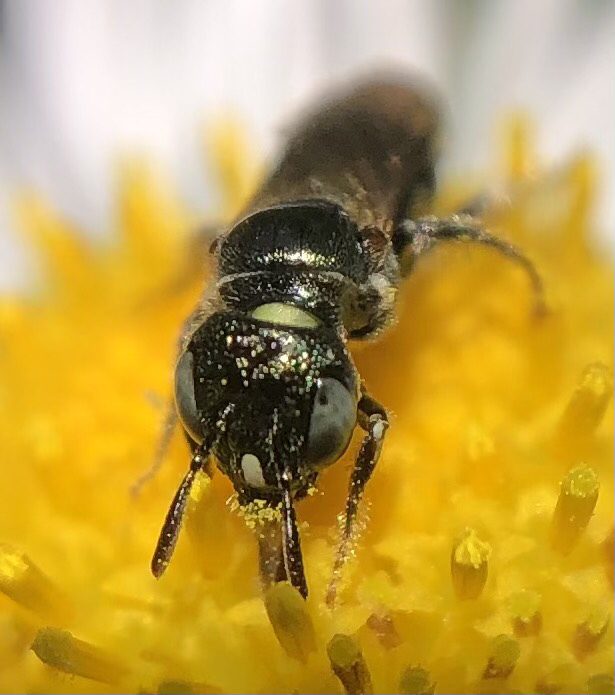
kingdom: Animalia
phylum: Arthropoda
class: Insecta
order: Hymenoptera
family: Apidae
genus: Ceratina
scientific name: Ceratina strenua
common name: Nimble carpenter bee
